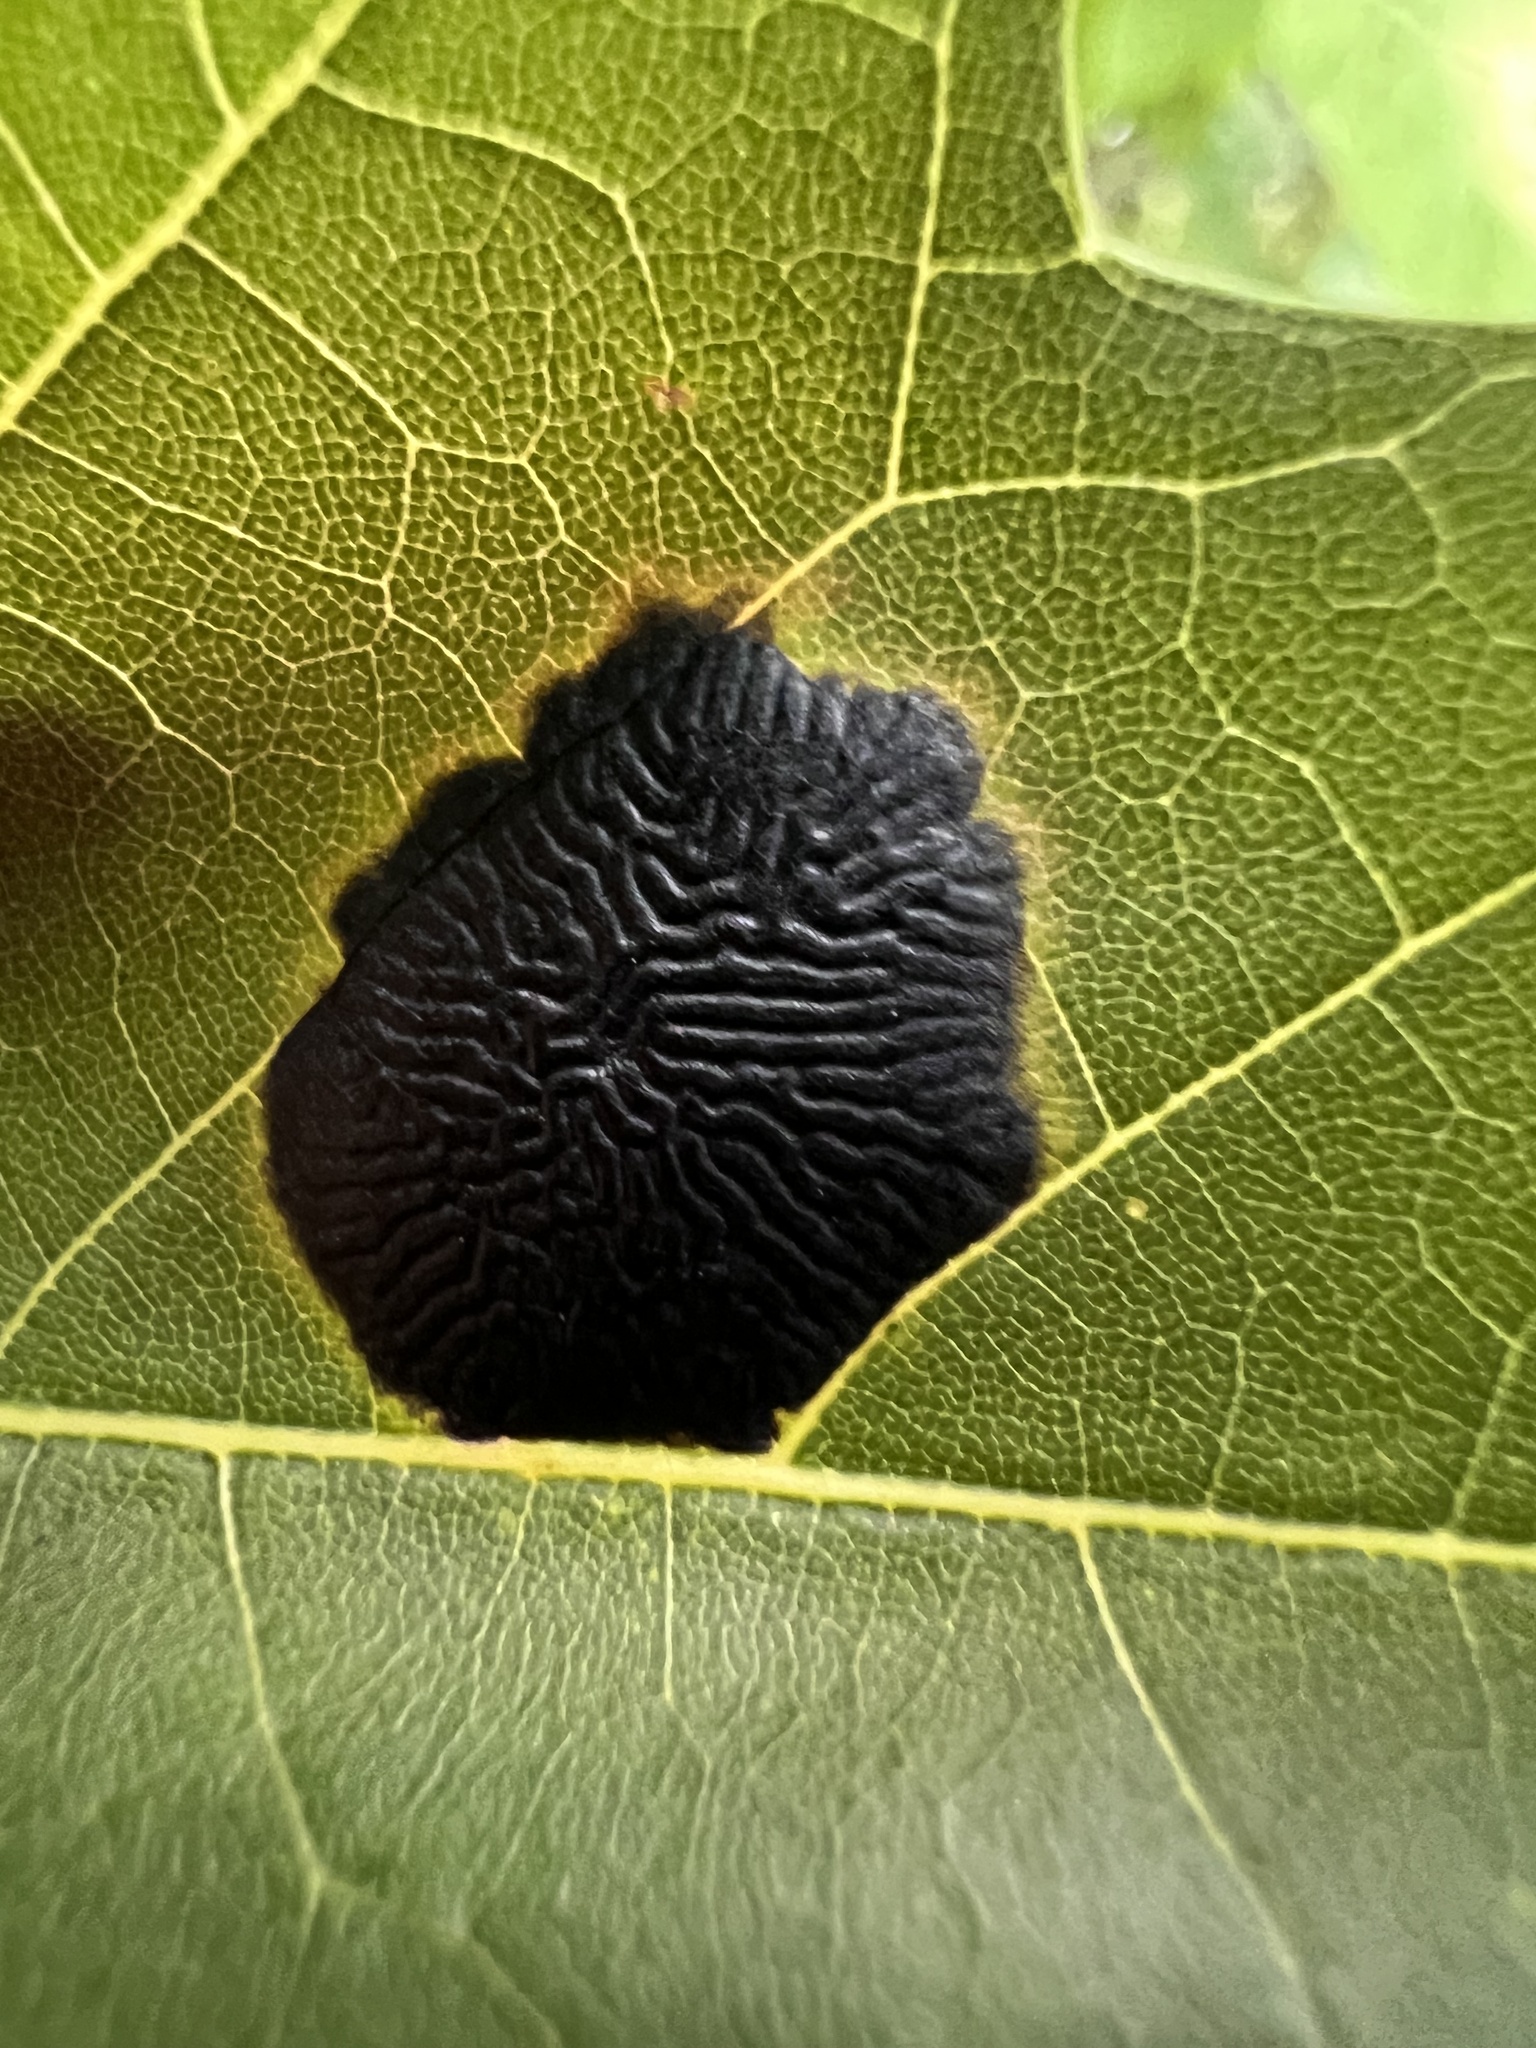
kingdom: Fungi
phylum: Ascomycota
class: Leotiomycetes
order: Rhytismatales
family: Rhytismataceae
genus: Rhytisma
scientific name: Rhytisma americanum
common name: American tar spot
